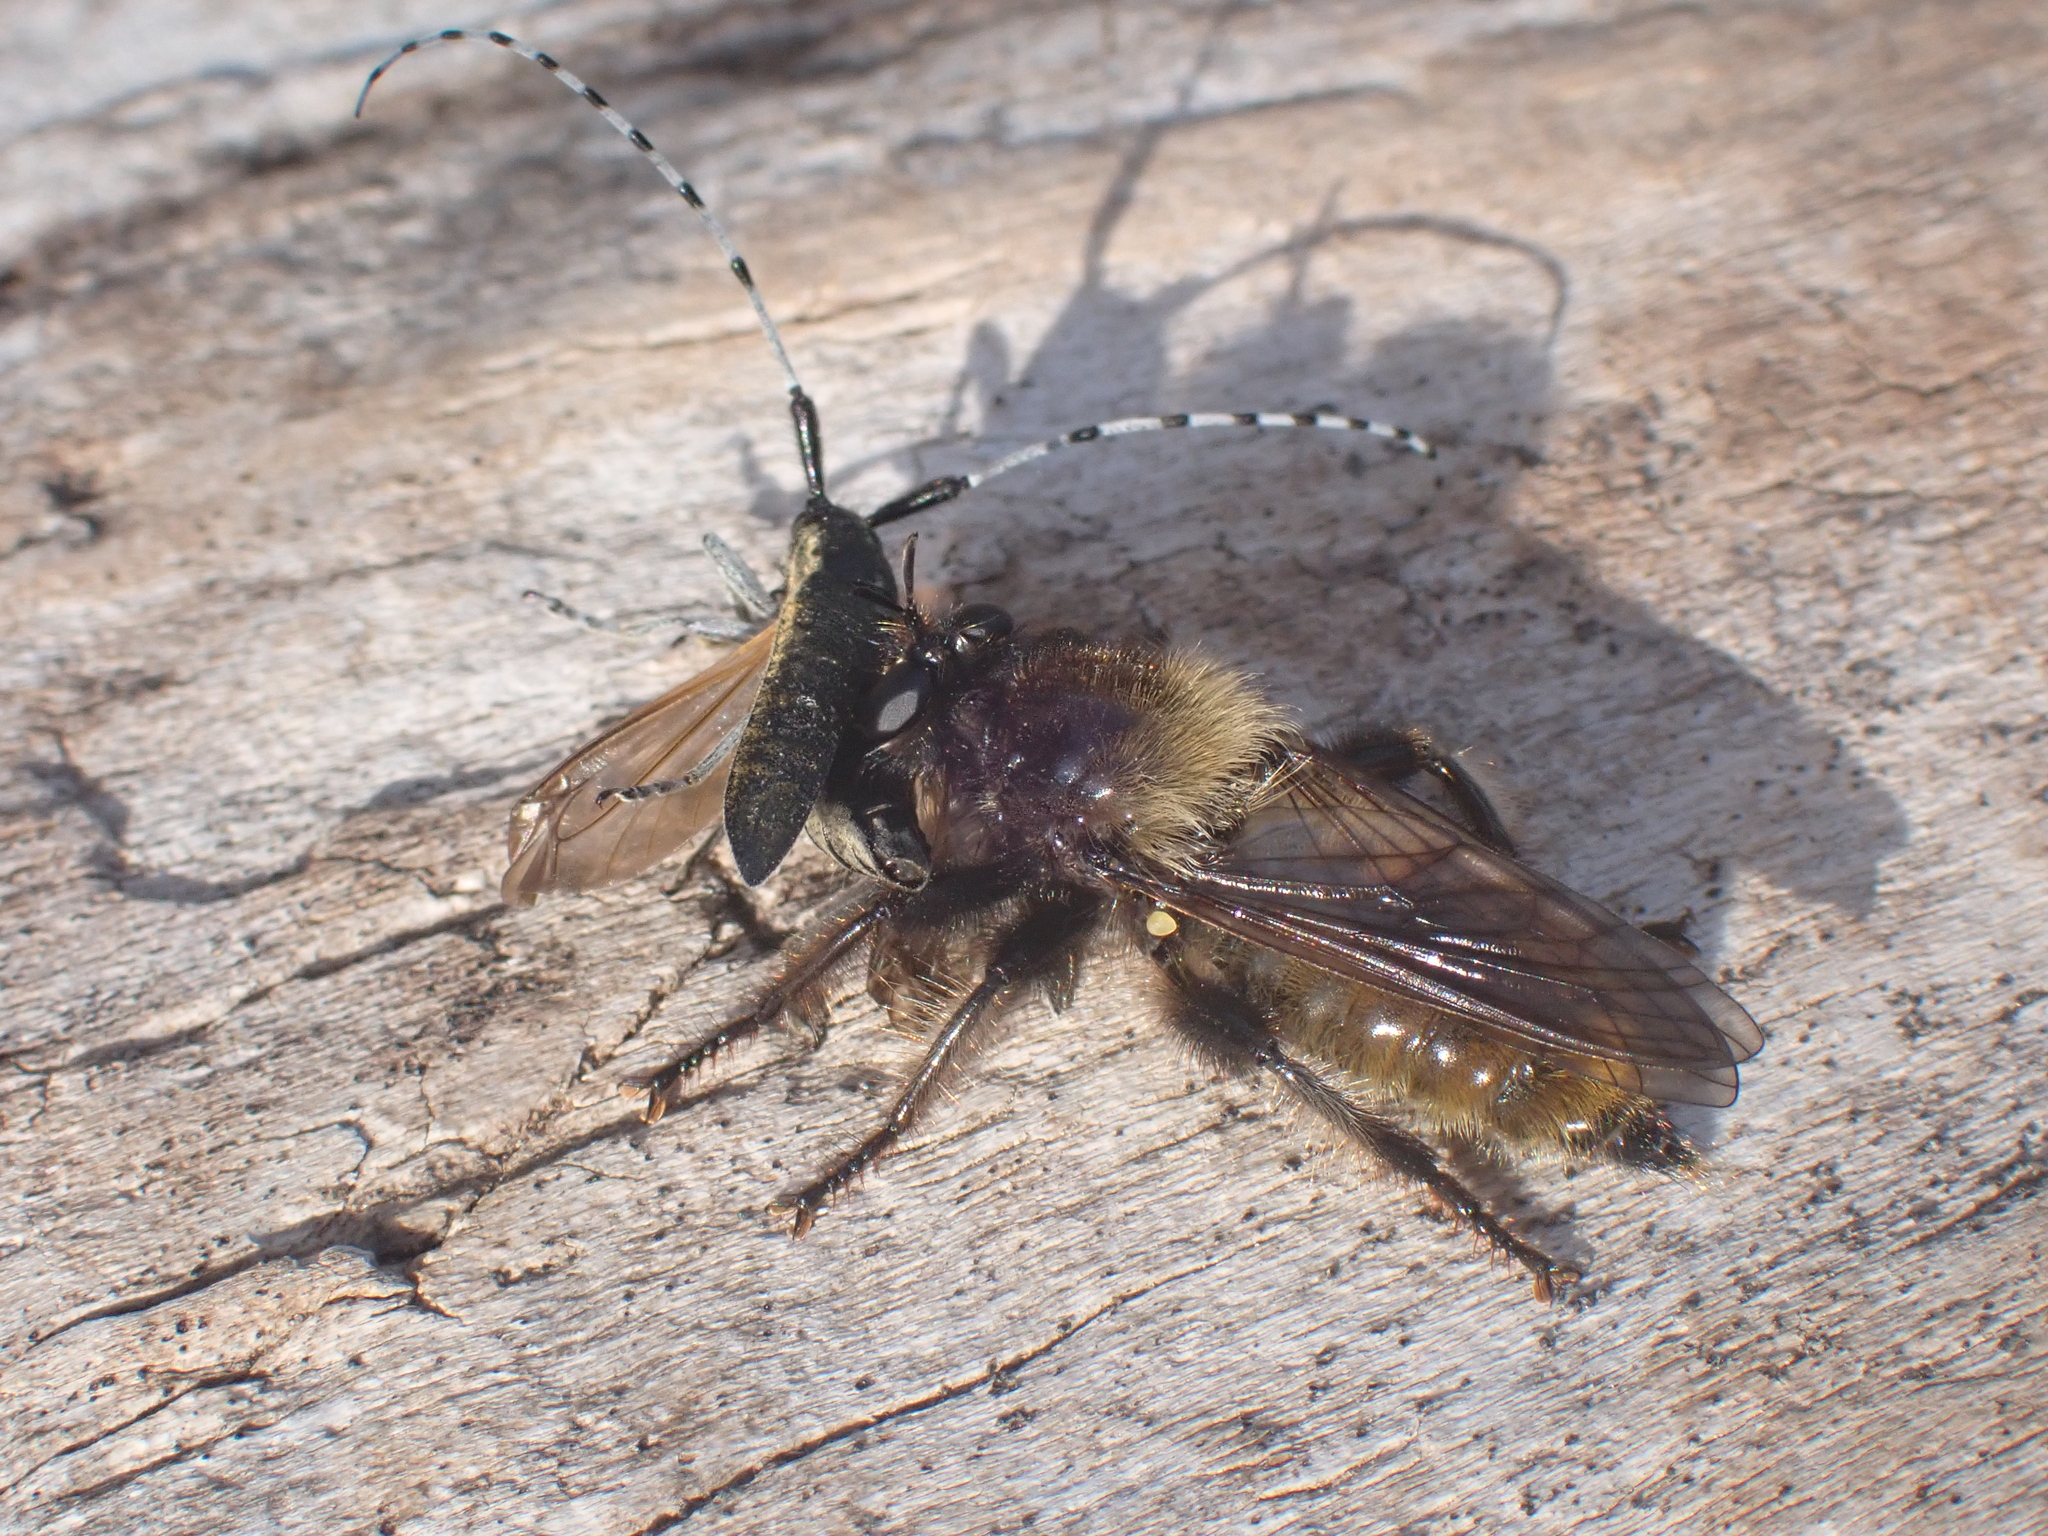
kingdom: Animalia
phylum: Arthropoda
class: Insecta
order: Coleoptera
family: Cerambycidae
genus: Agapanthia
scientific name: Agapanthia villosoviridescens
